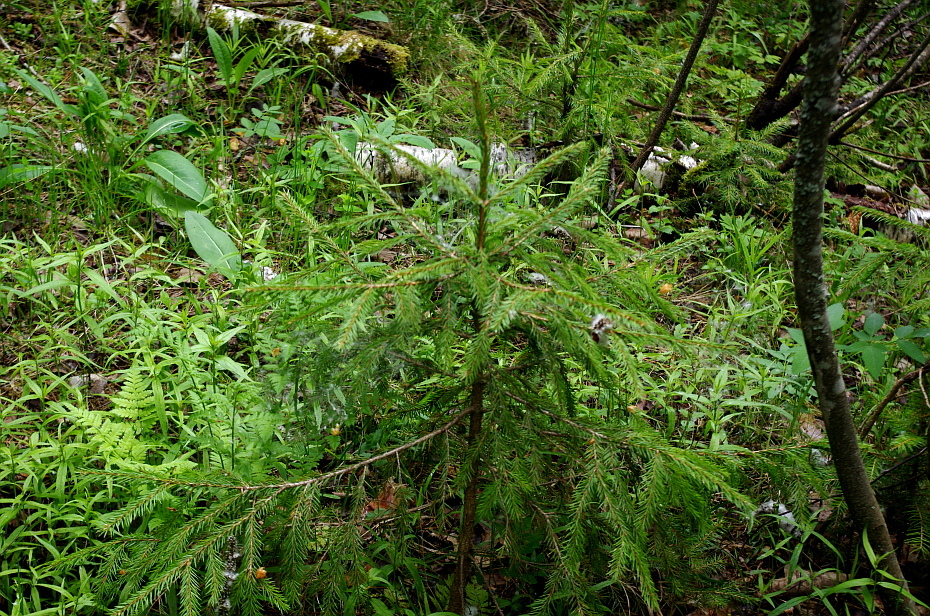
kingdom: Plantae
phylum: Tracheophyta
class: Pinopsida
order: Pinales
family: Pinaceae
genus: Picea
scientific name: Picea abies
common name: Norway spruce
